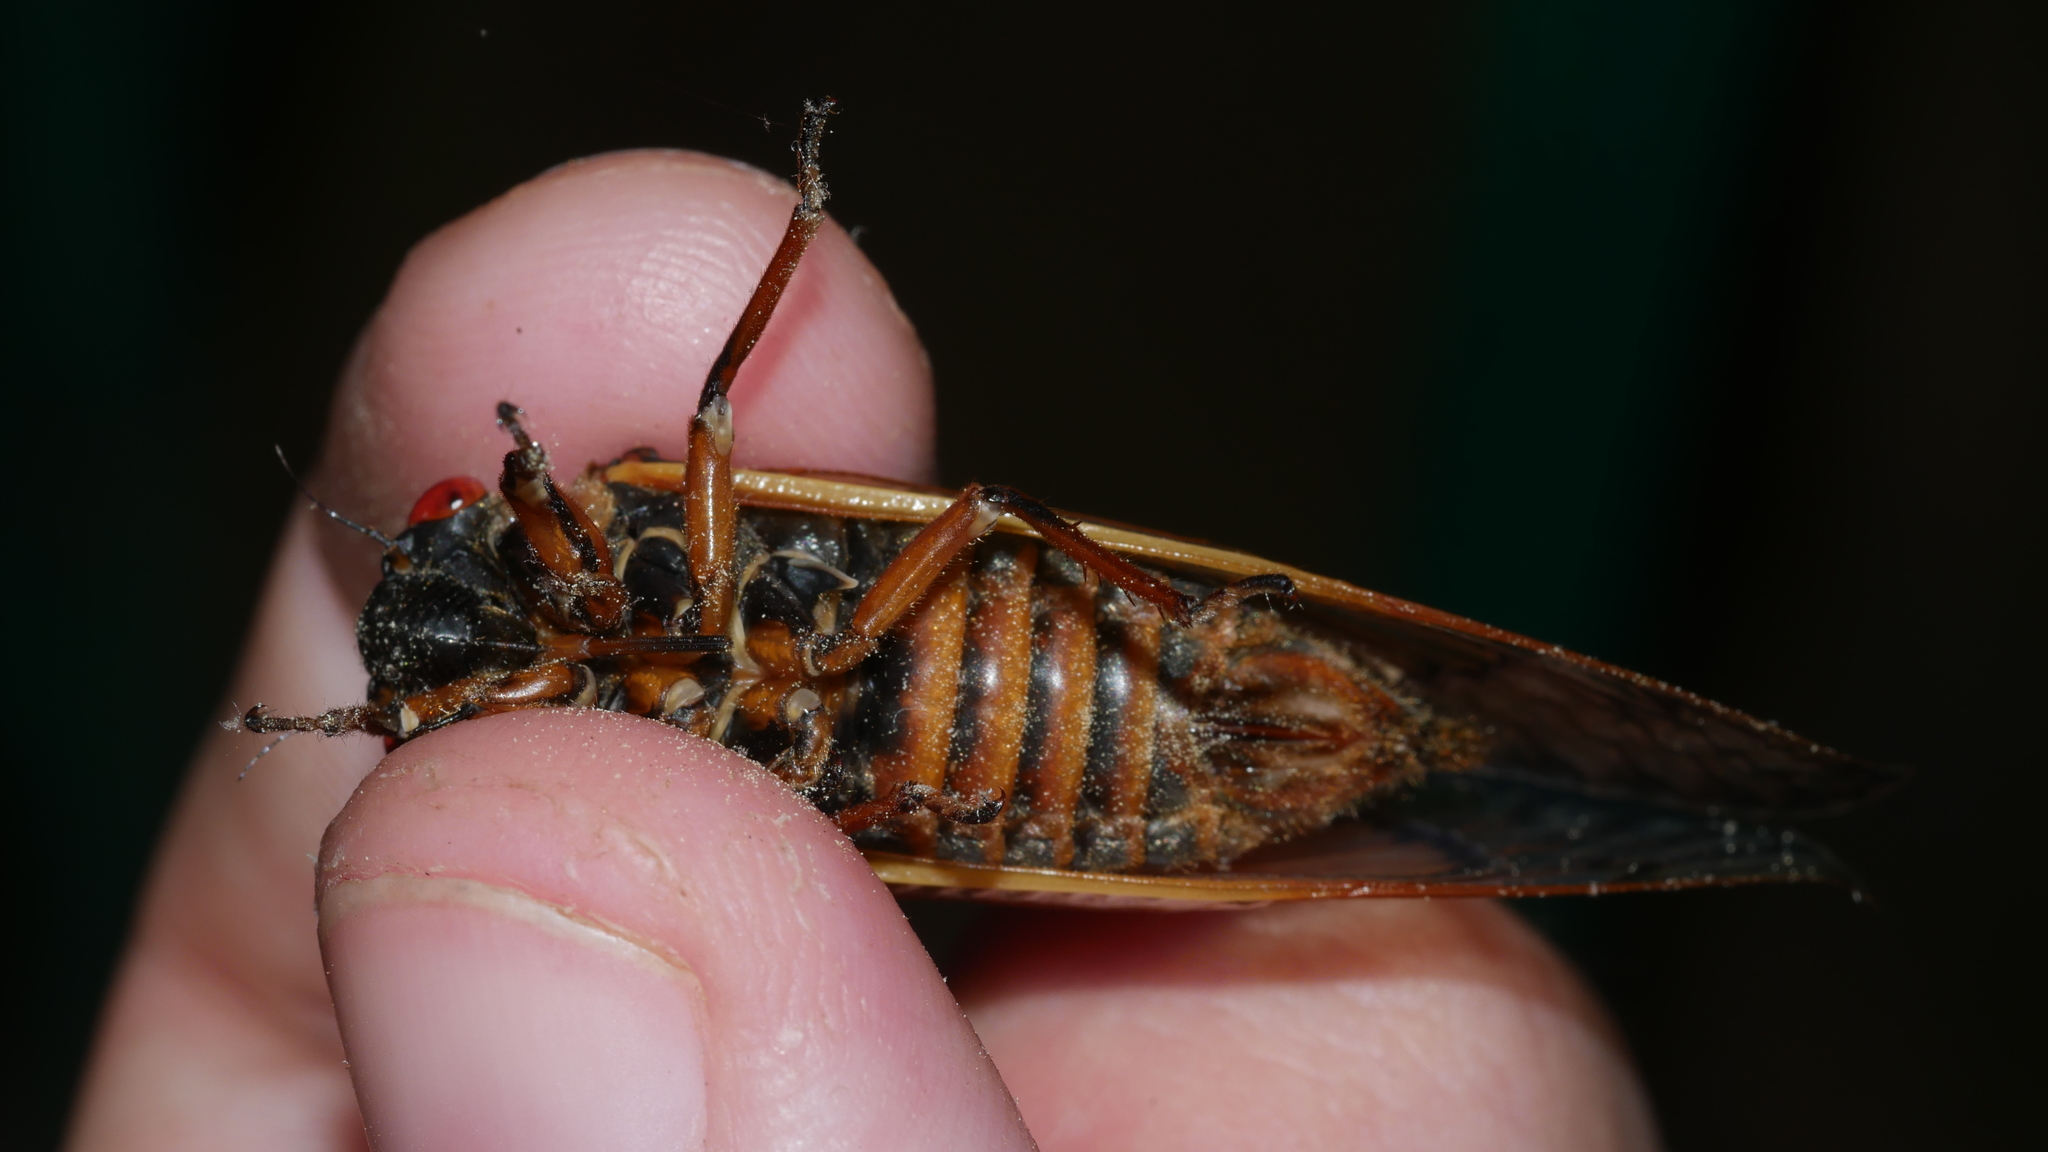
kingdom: Animalia
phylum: Arthropoda
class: Insecta
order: Hemiptera
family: Cicadidae
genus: Magicicada
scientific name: Magicicada septendecim
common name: Periodical cicada
